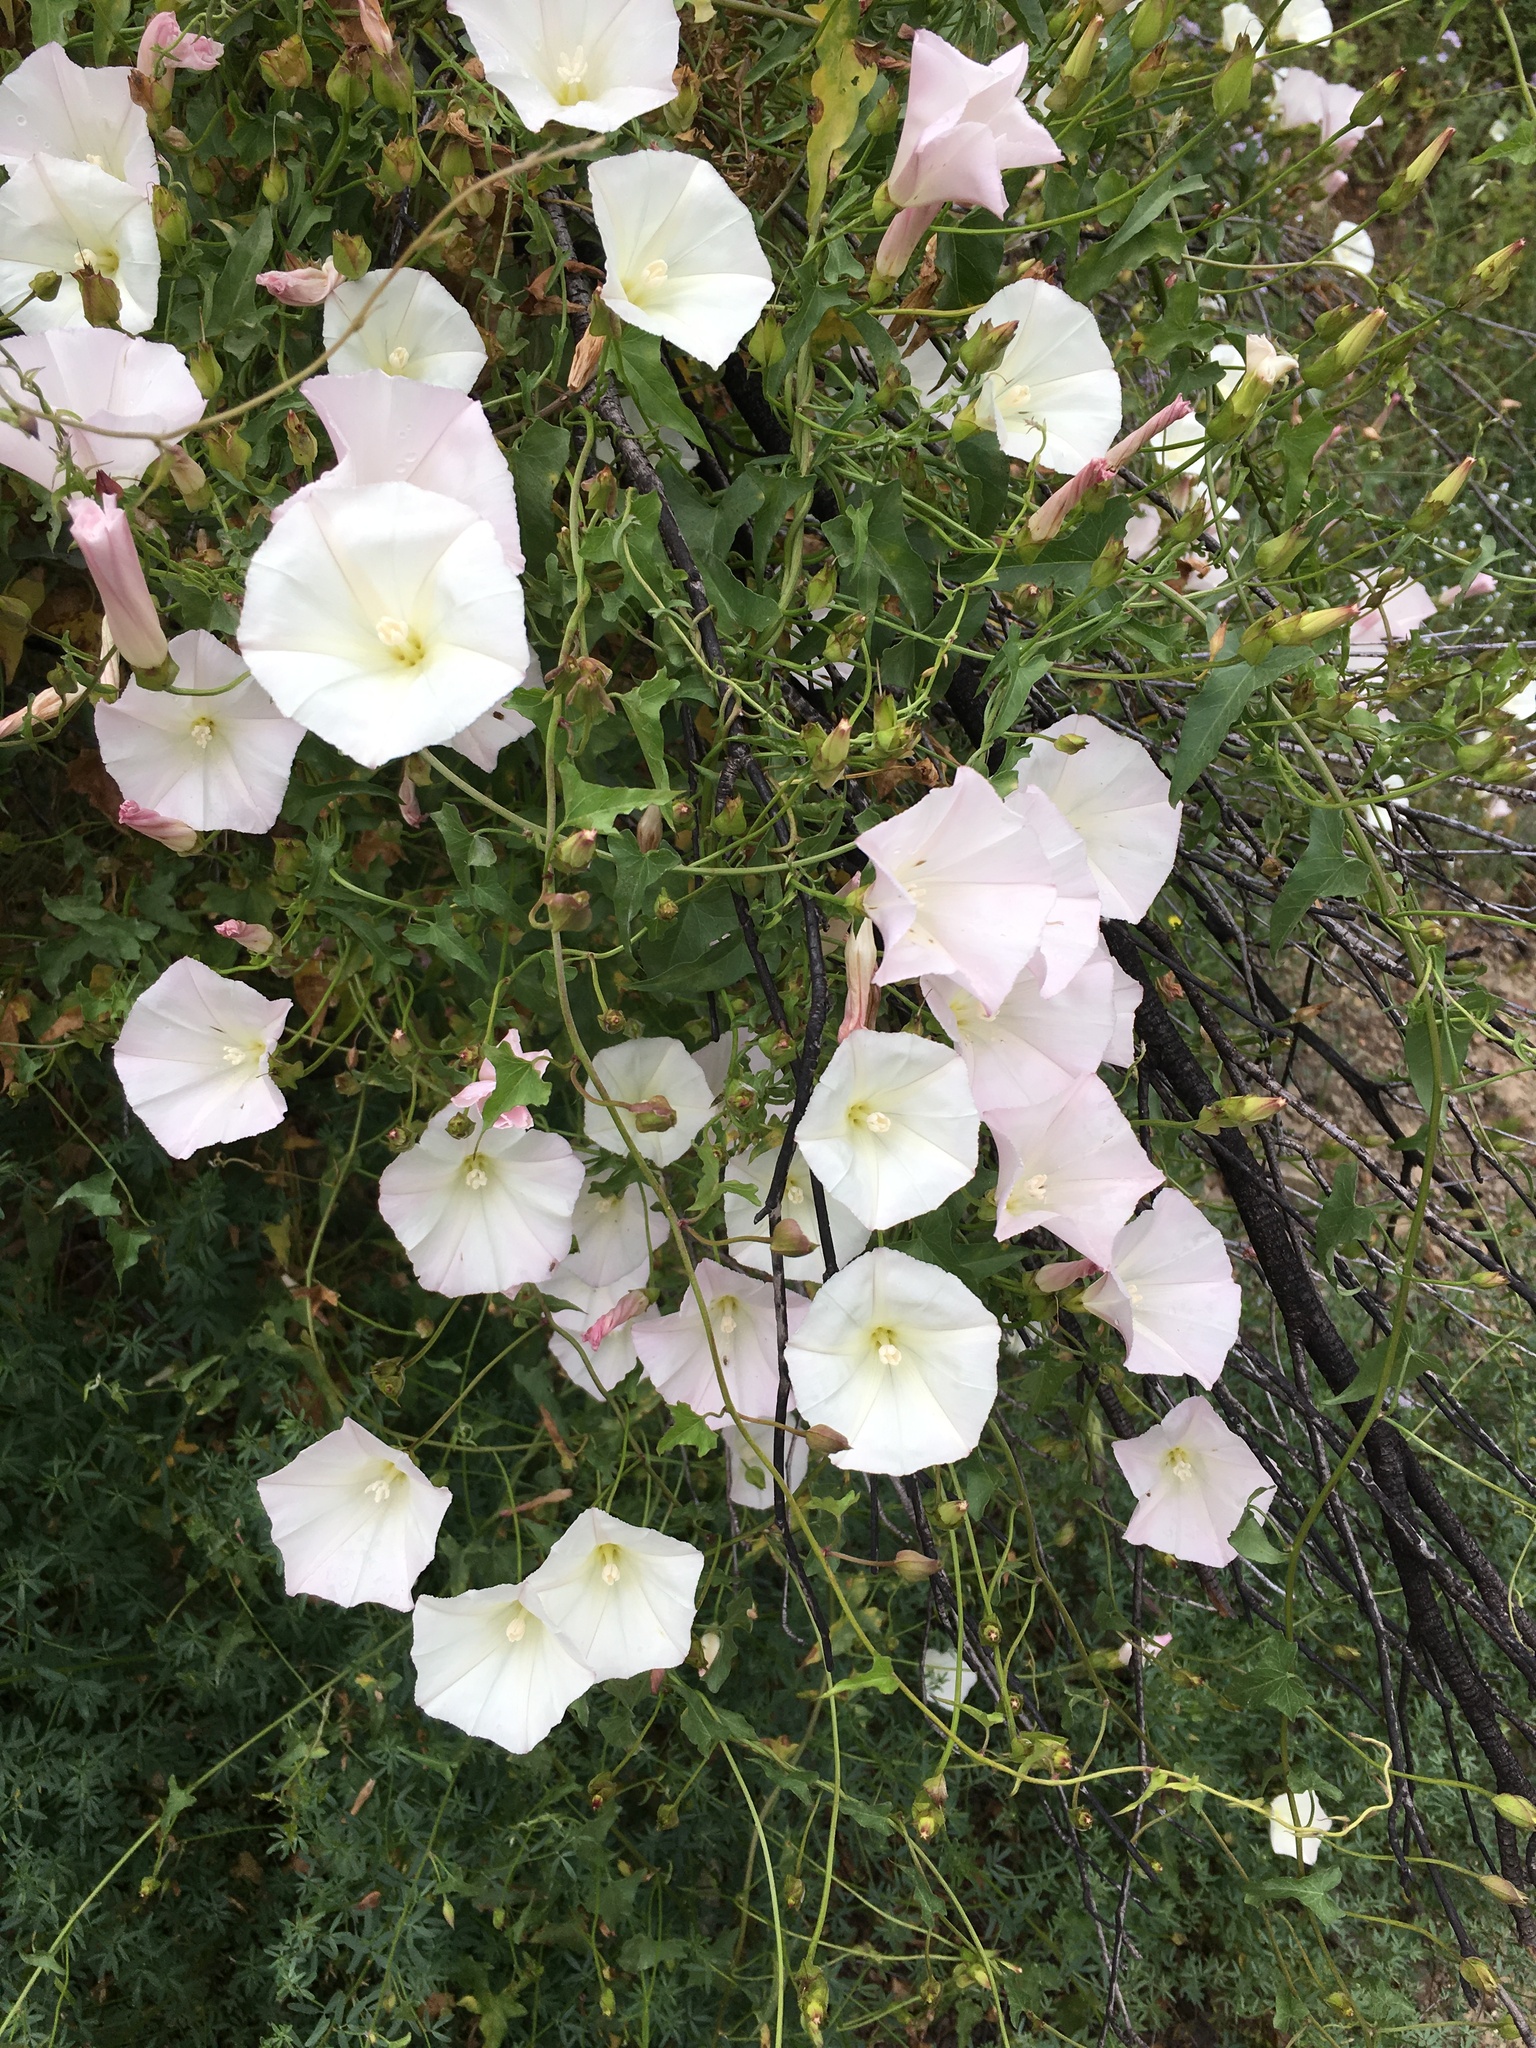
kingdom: Plantae
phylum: Tracheophyta
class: Magnoliopsida
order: Solanales
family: Convolvulaceae
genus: Calystegia
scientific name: Calystegia macrostegia
